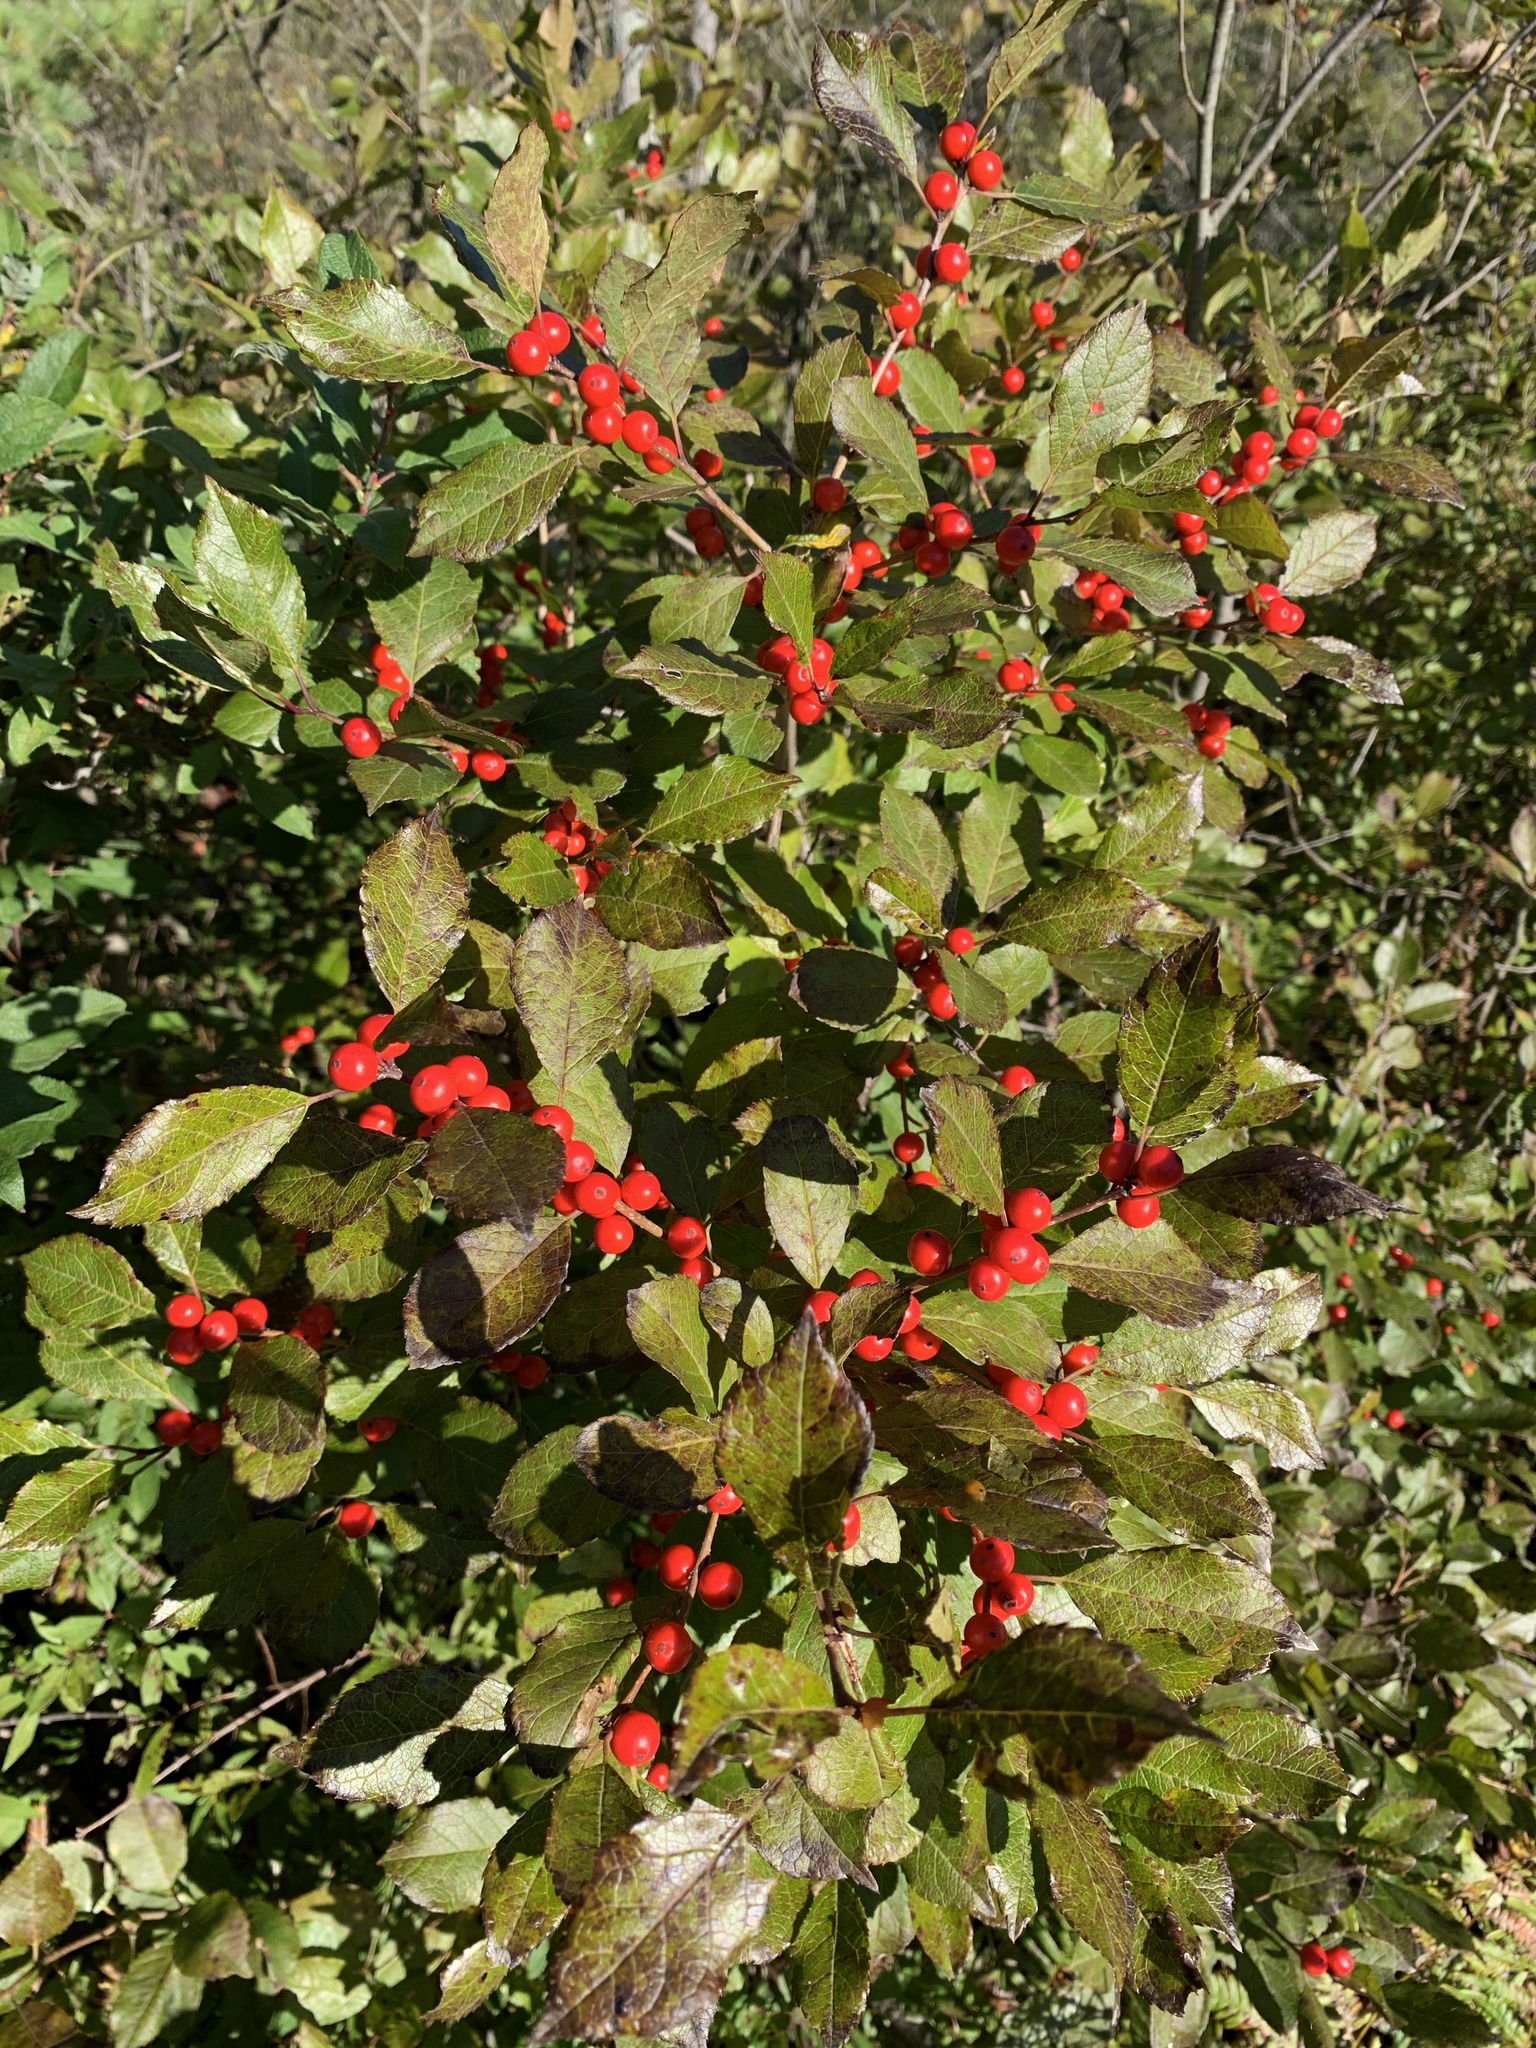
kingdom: Plantae
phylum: Tracheophyta
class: Magnoliopsida
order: Aquifoliales
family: Aquifoliaceae
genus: Ilex
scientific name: Ilex verticillata
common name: Virginia winterberry
